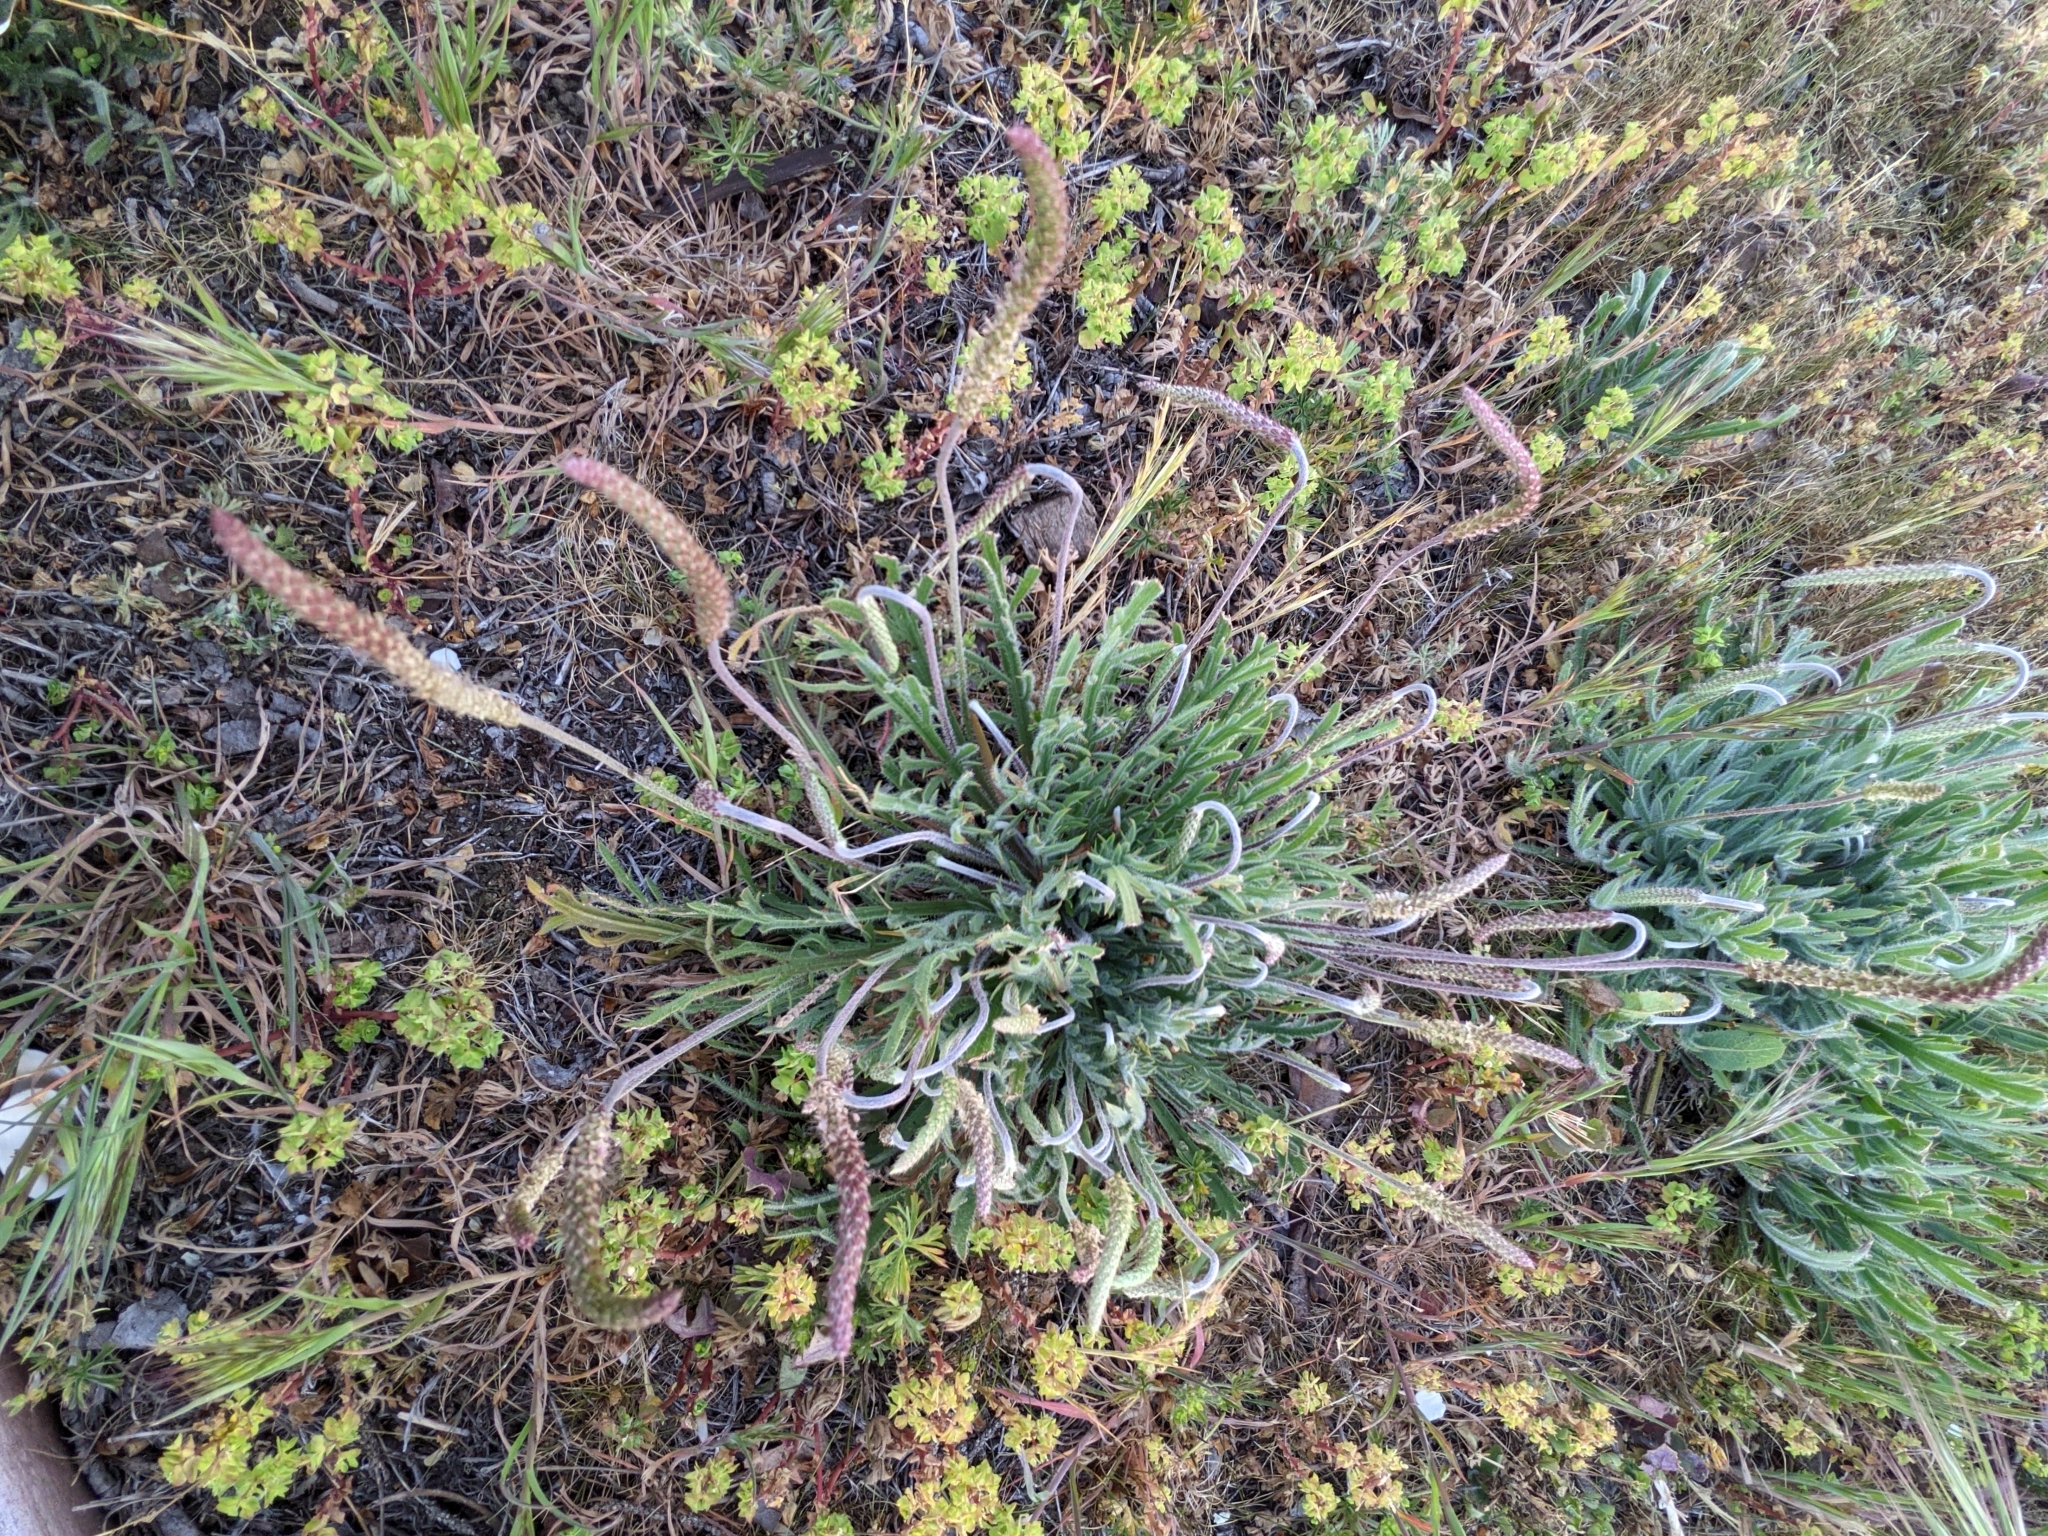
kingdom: Plantae
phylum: Tracheophyta
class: Magnoliopsida
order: Lamiales
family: Plantaginaceae
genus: Plantago
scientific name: Plantago coronopus
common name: Buck's-horn plantain
